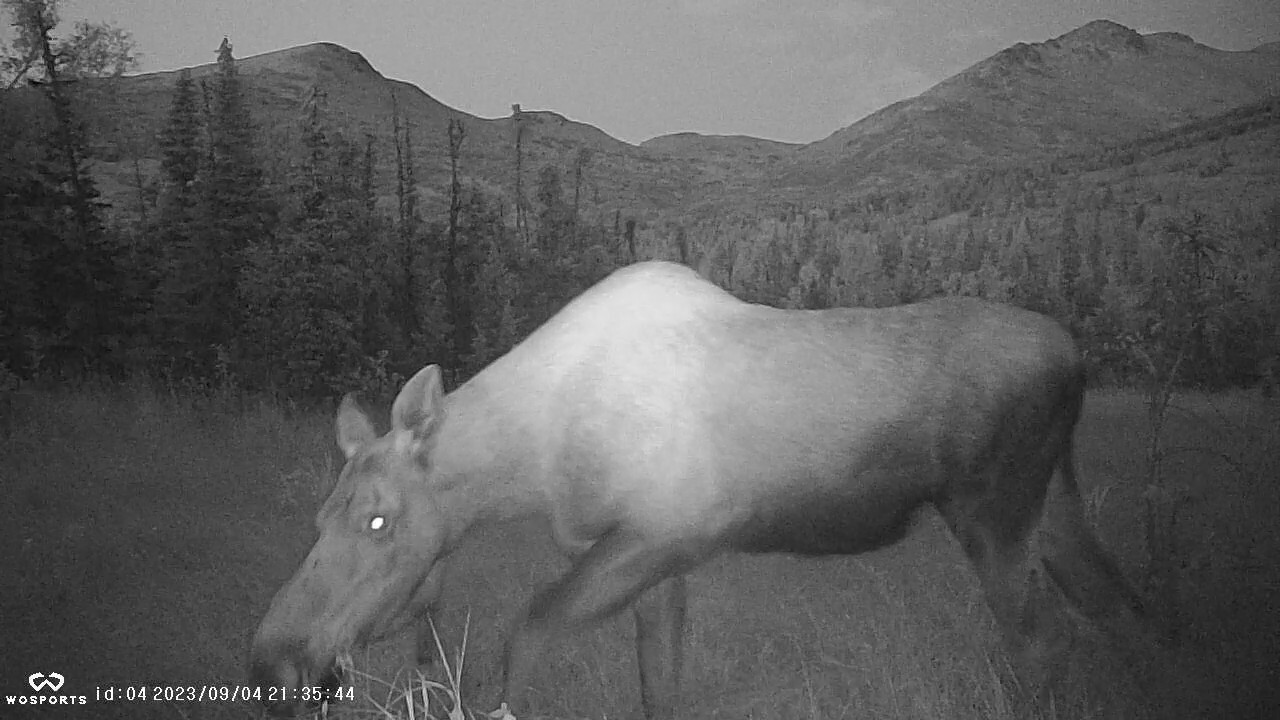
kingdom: Animalia
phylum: Chordata
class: Mammalia
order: Artiodactyla
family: Cervidae
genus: Alces
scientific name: Alces alces
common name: Moose
